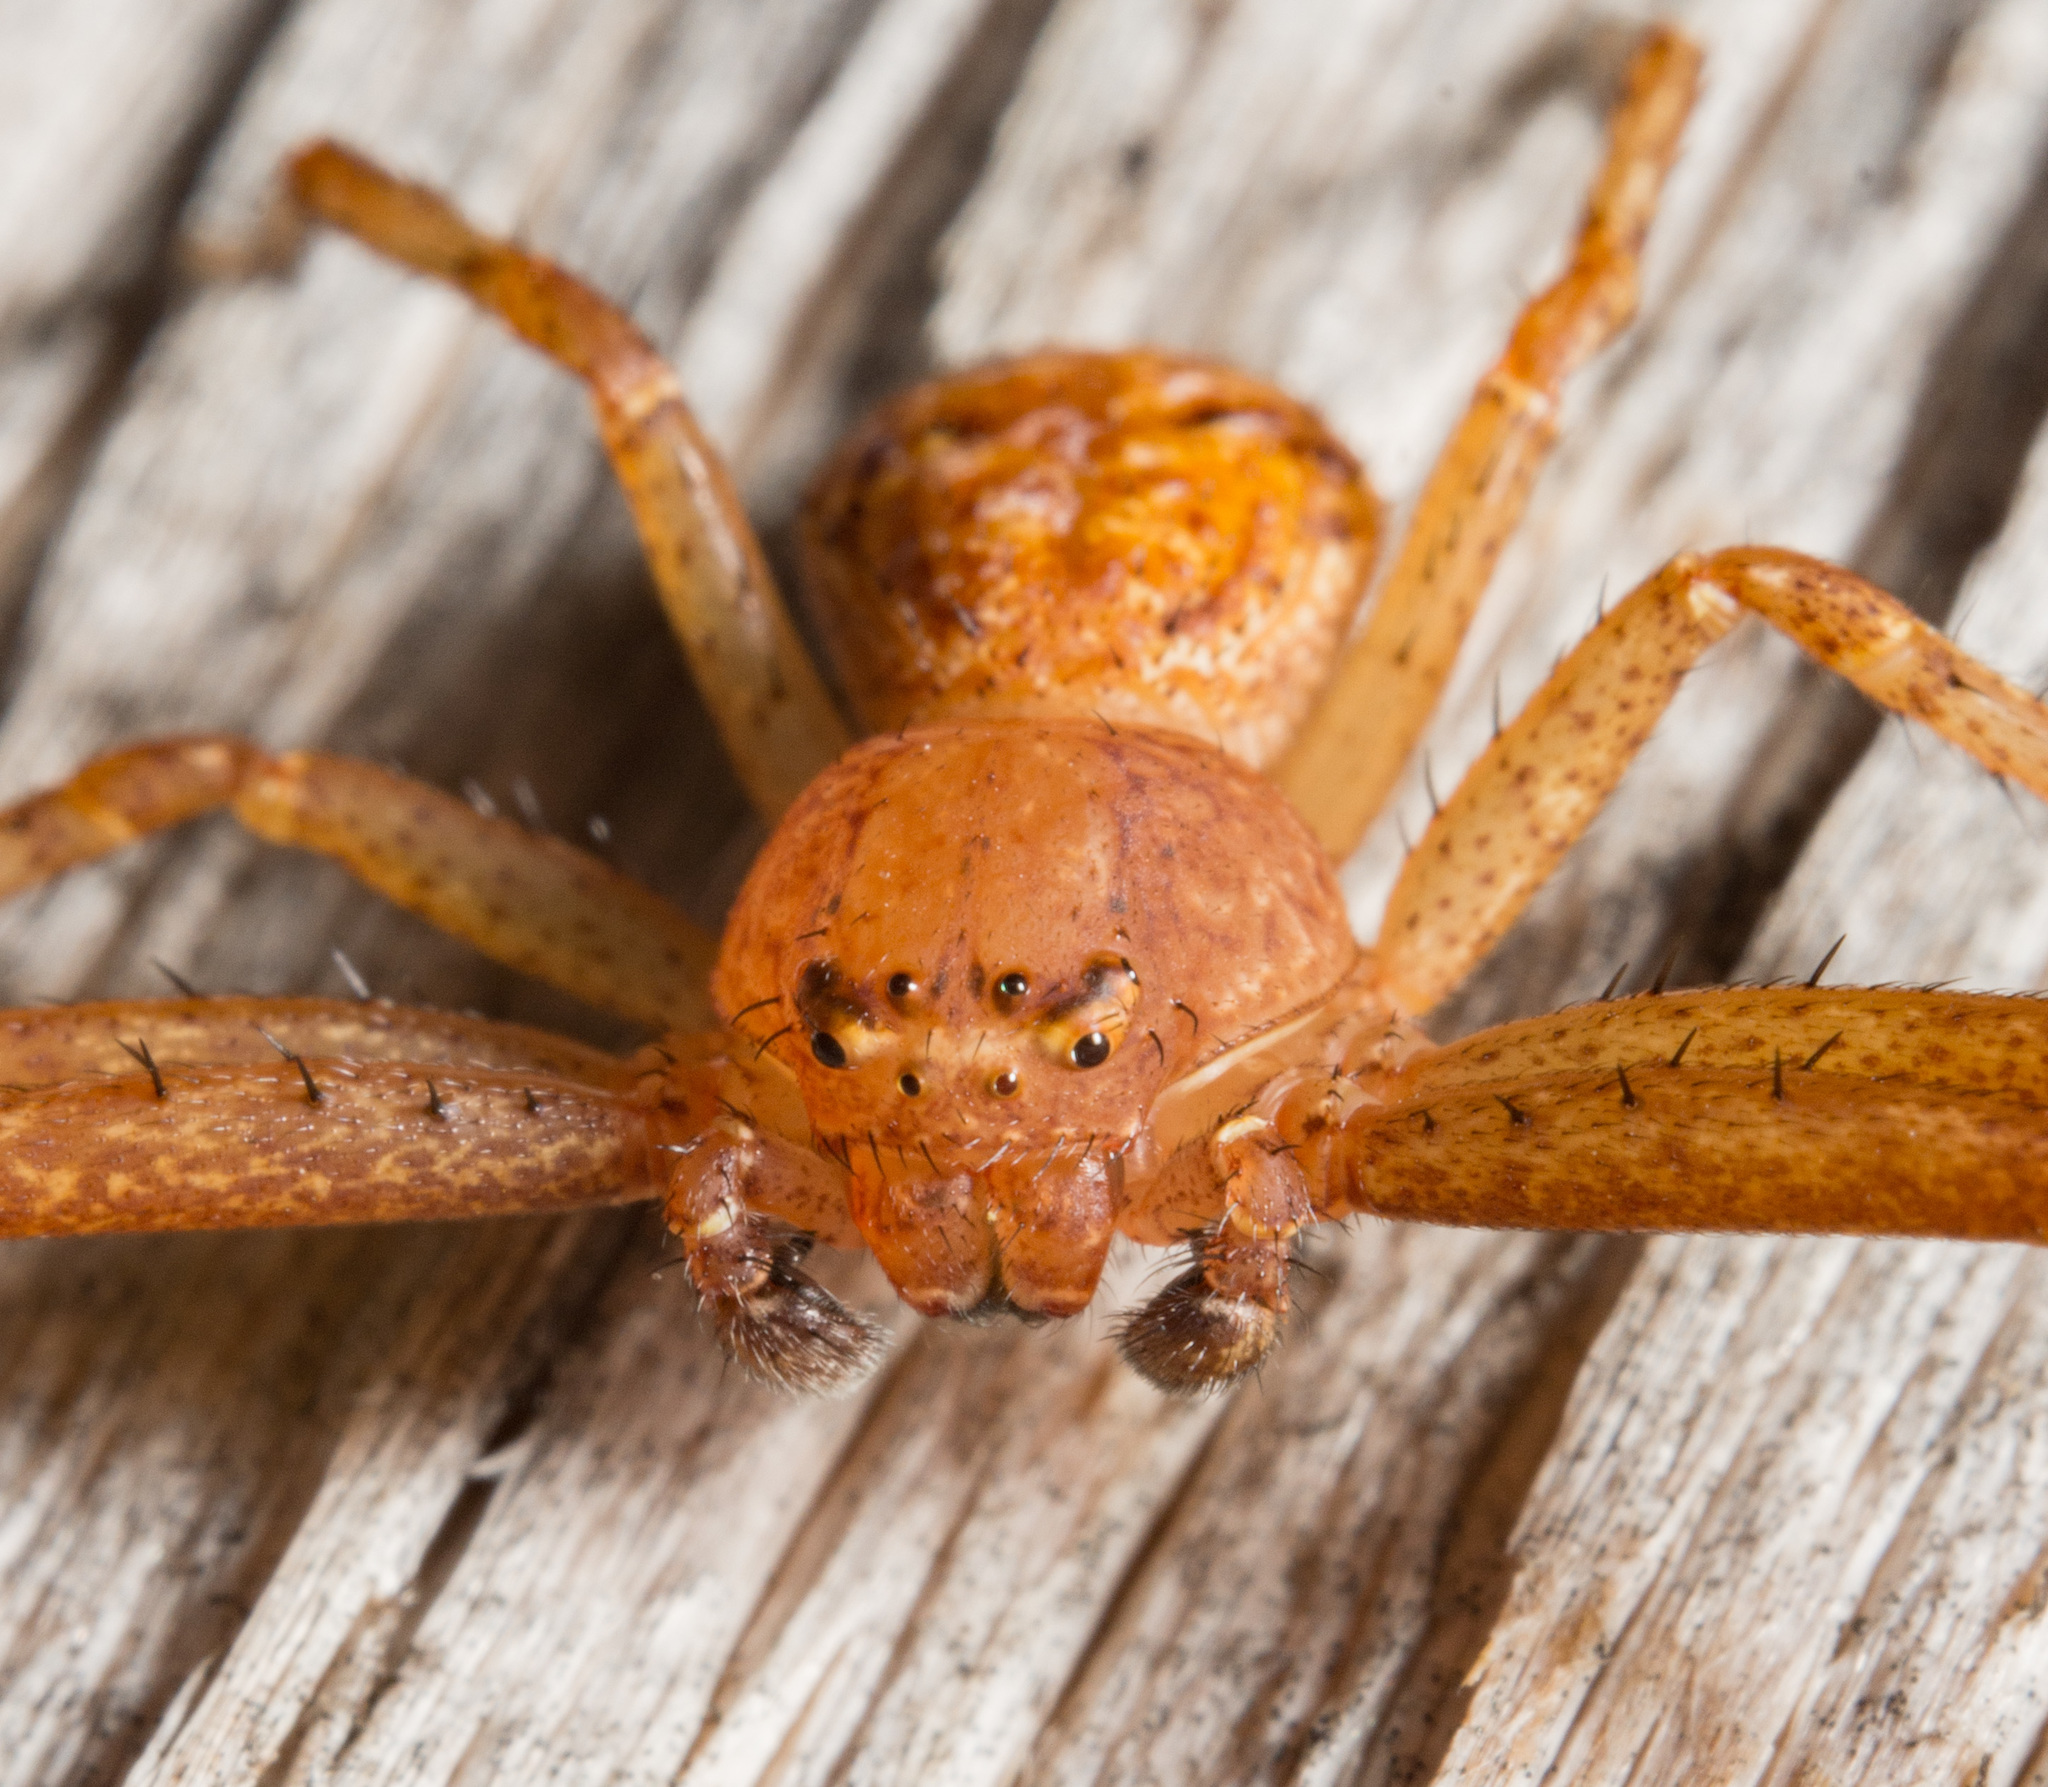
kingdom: Animalia
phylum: Arthropoda
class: Arachnida
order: Araneae
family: Thomisidae
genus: Xysticus
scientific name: Xysticus funestus
